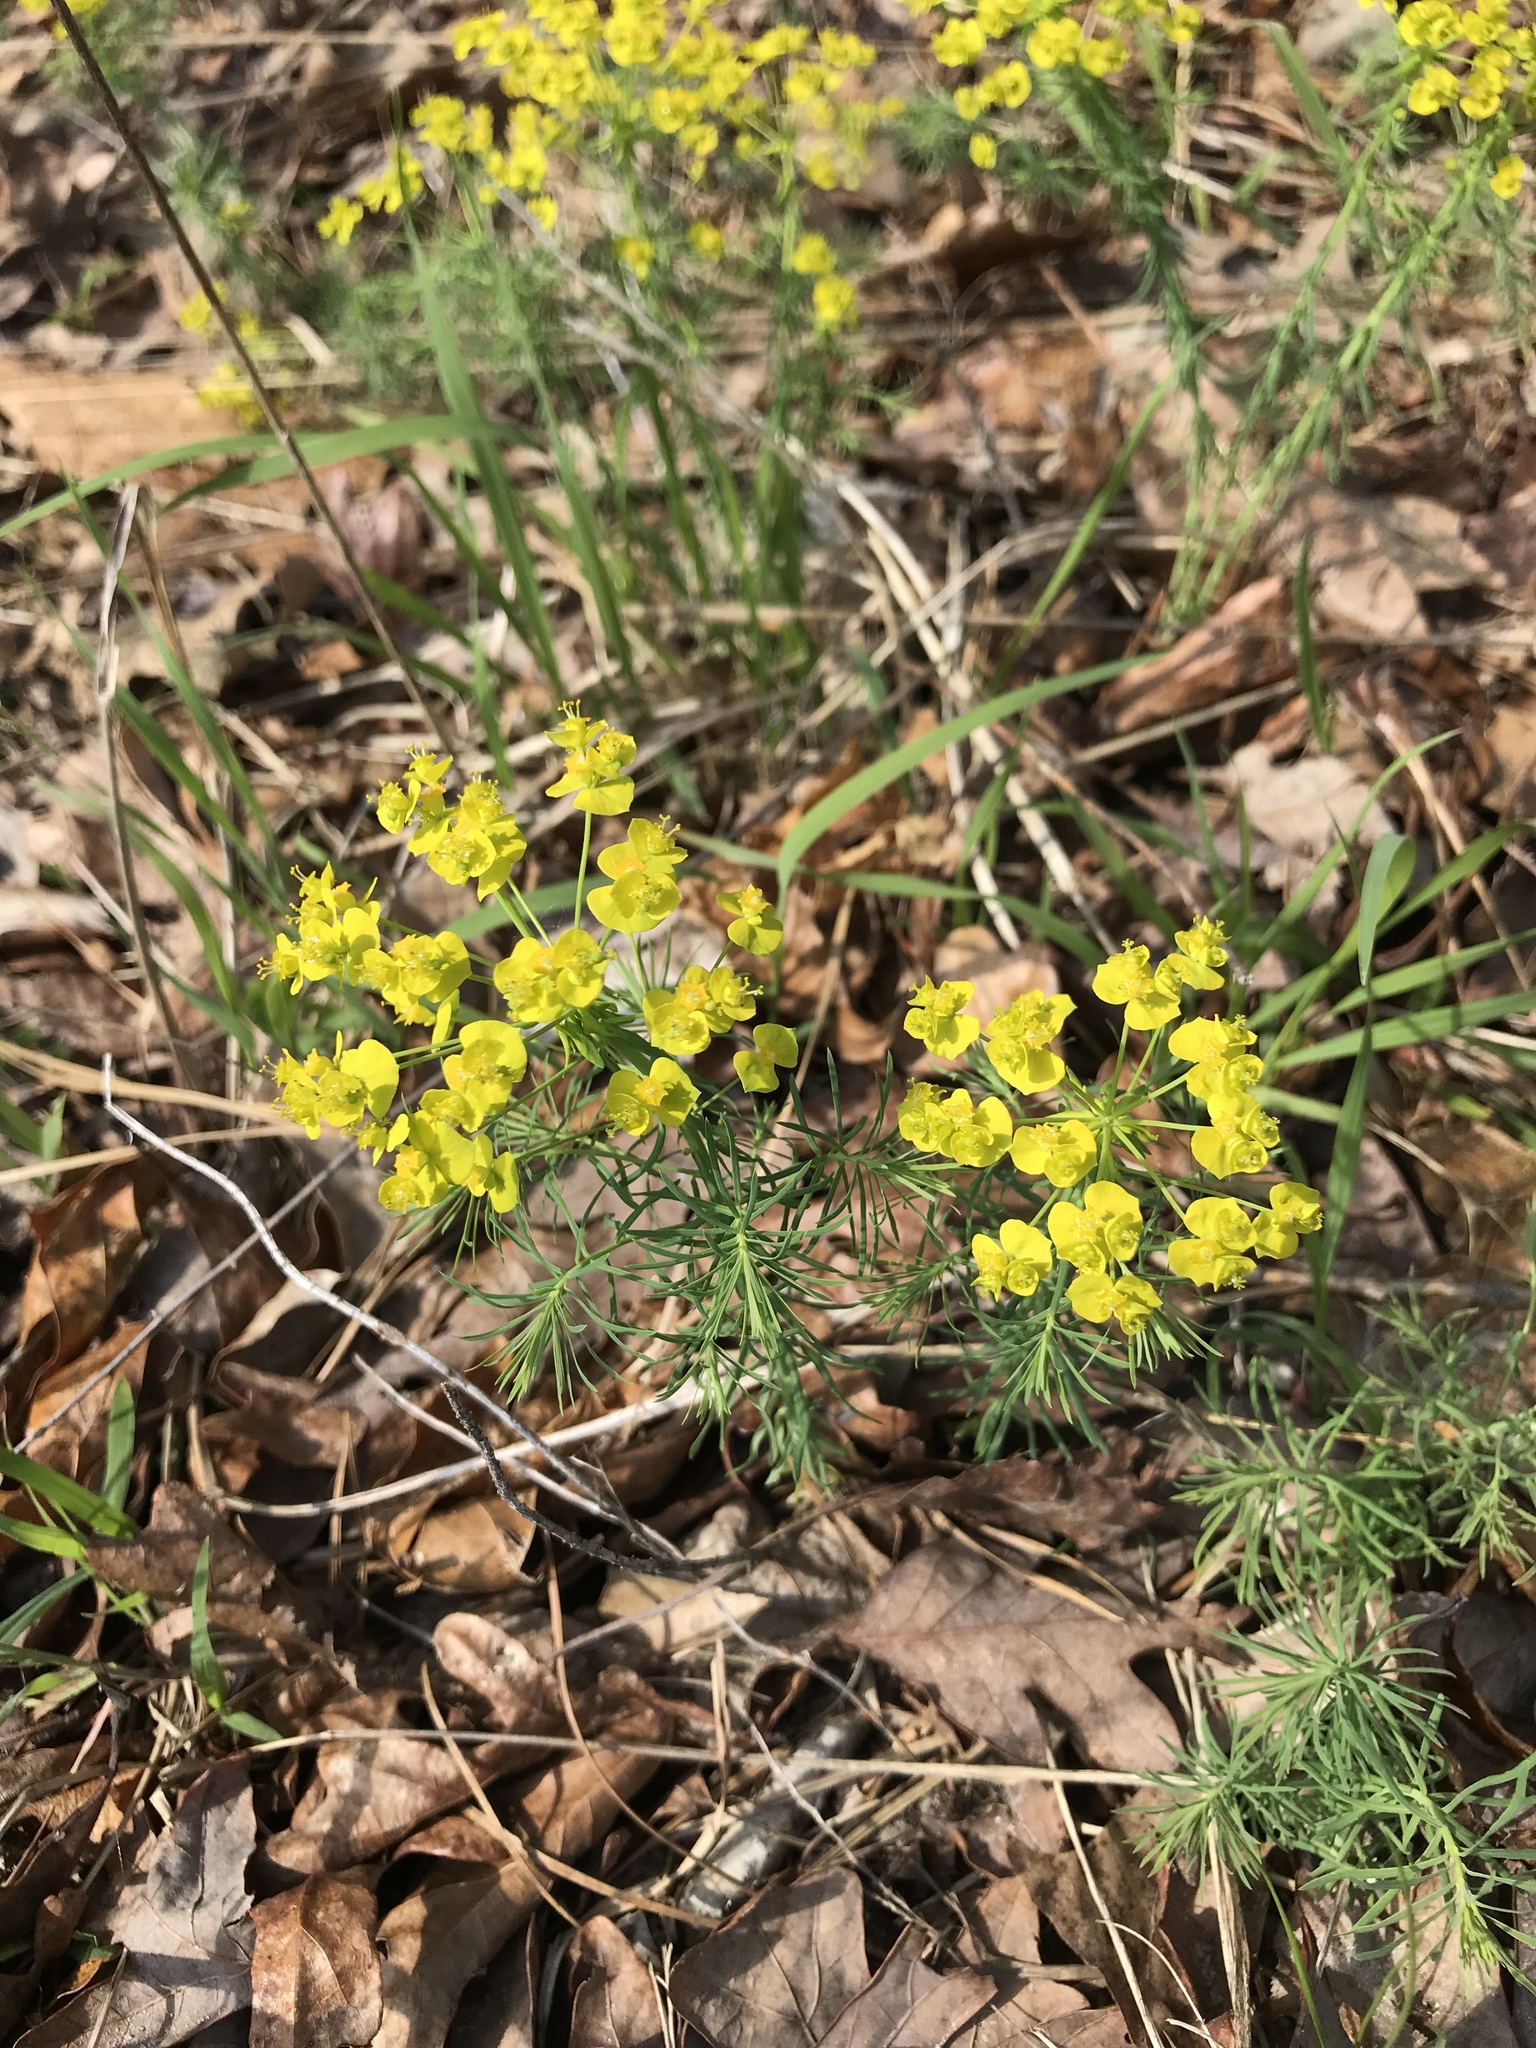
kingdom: Plantae
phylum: Tracheophyta
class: Magnoliopsida
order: Malpighiales
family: Euphorbiaceae
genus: Euphorbia
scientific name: Euphorbia cyparissias
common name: Cypress spurge
